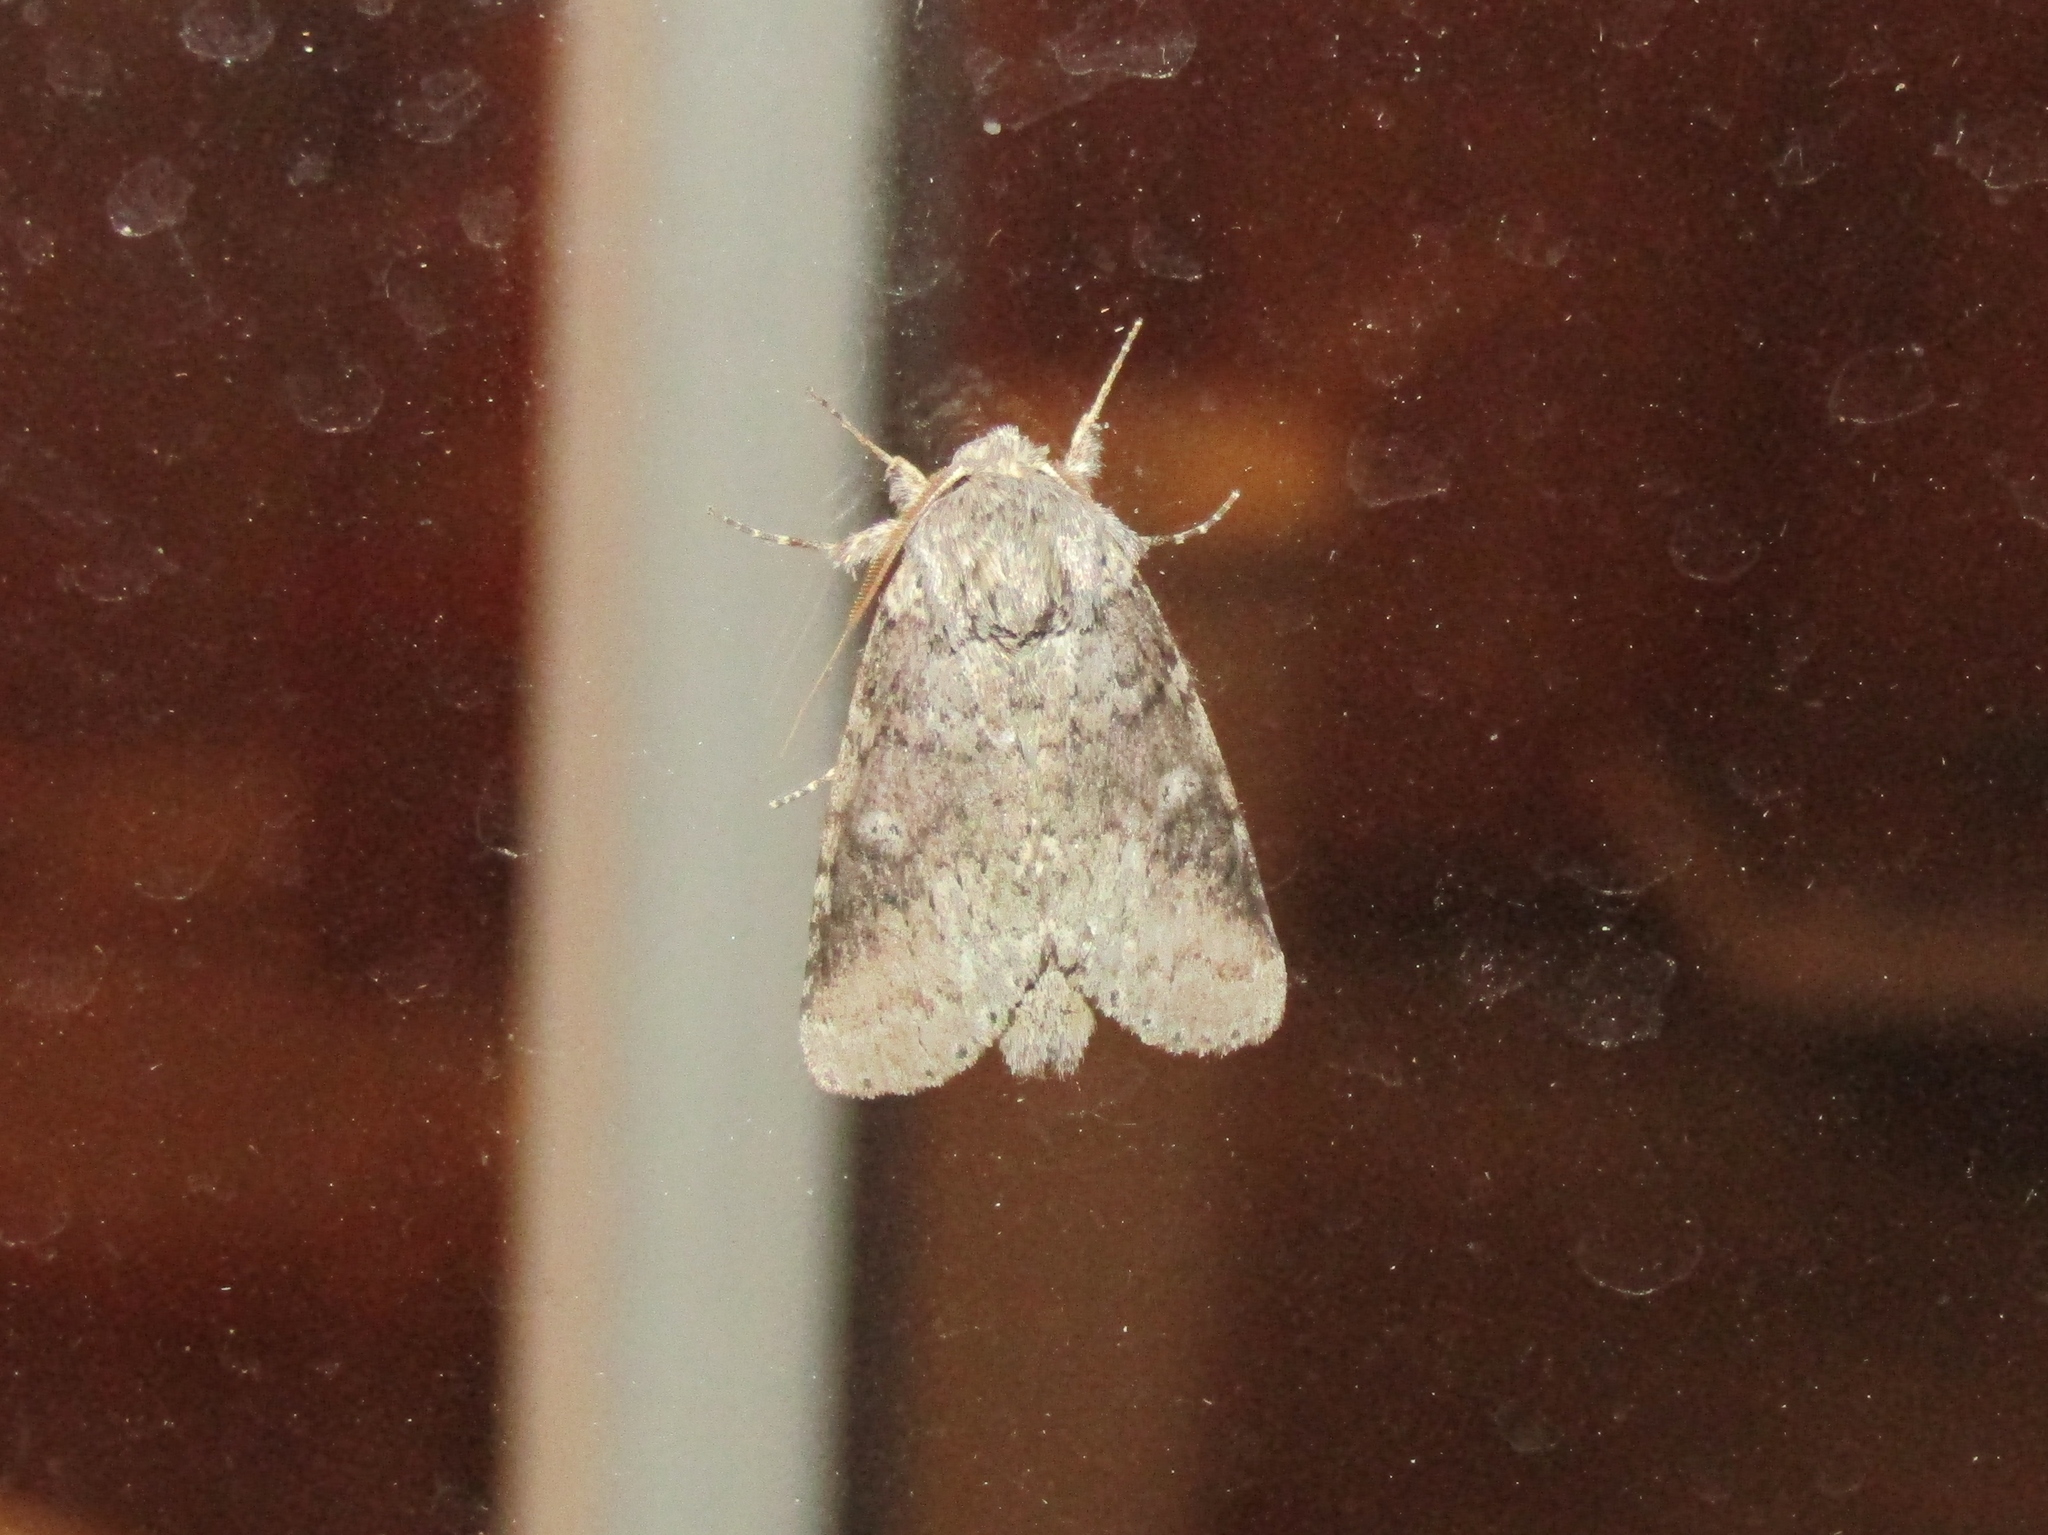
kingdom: Animalia
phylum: Arthropoda
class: Insecta
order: Lepidoptera
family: Notodontidae
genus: Lochmaeus
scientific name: Lochmaeus manteo
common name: Variable oakleaf caterpillar moth
